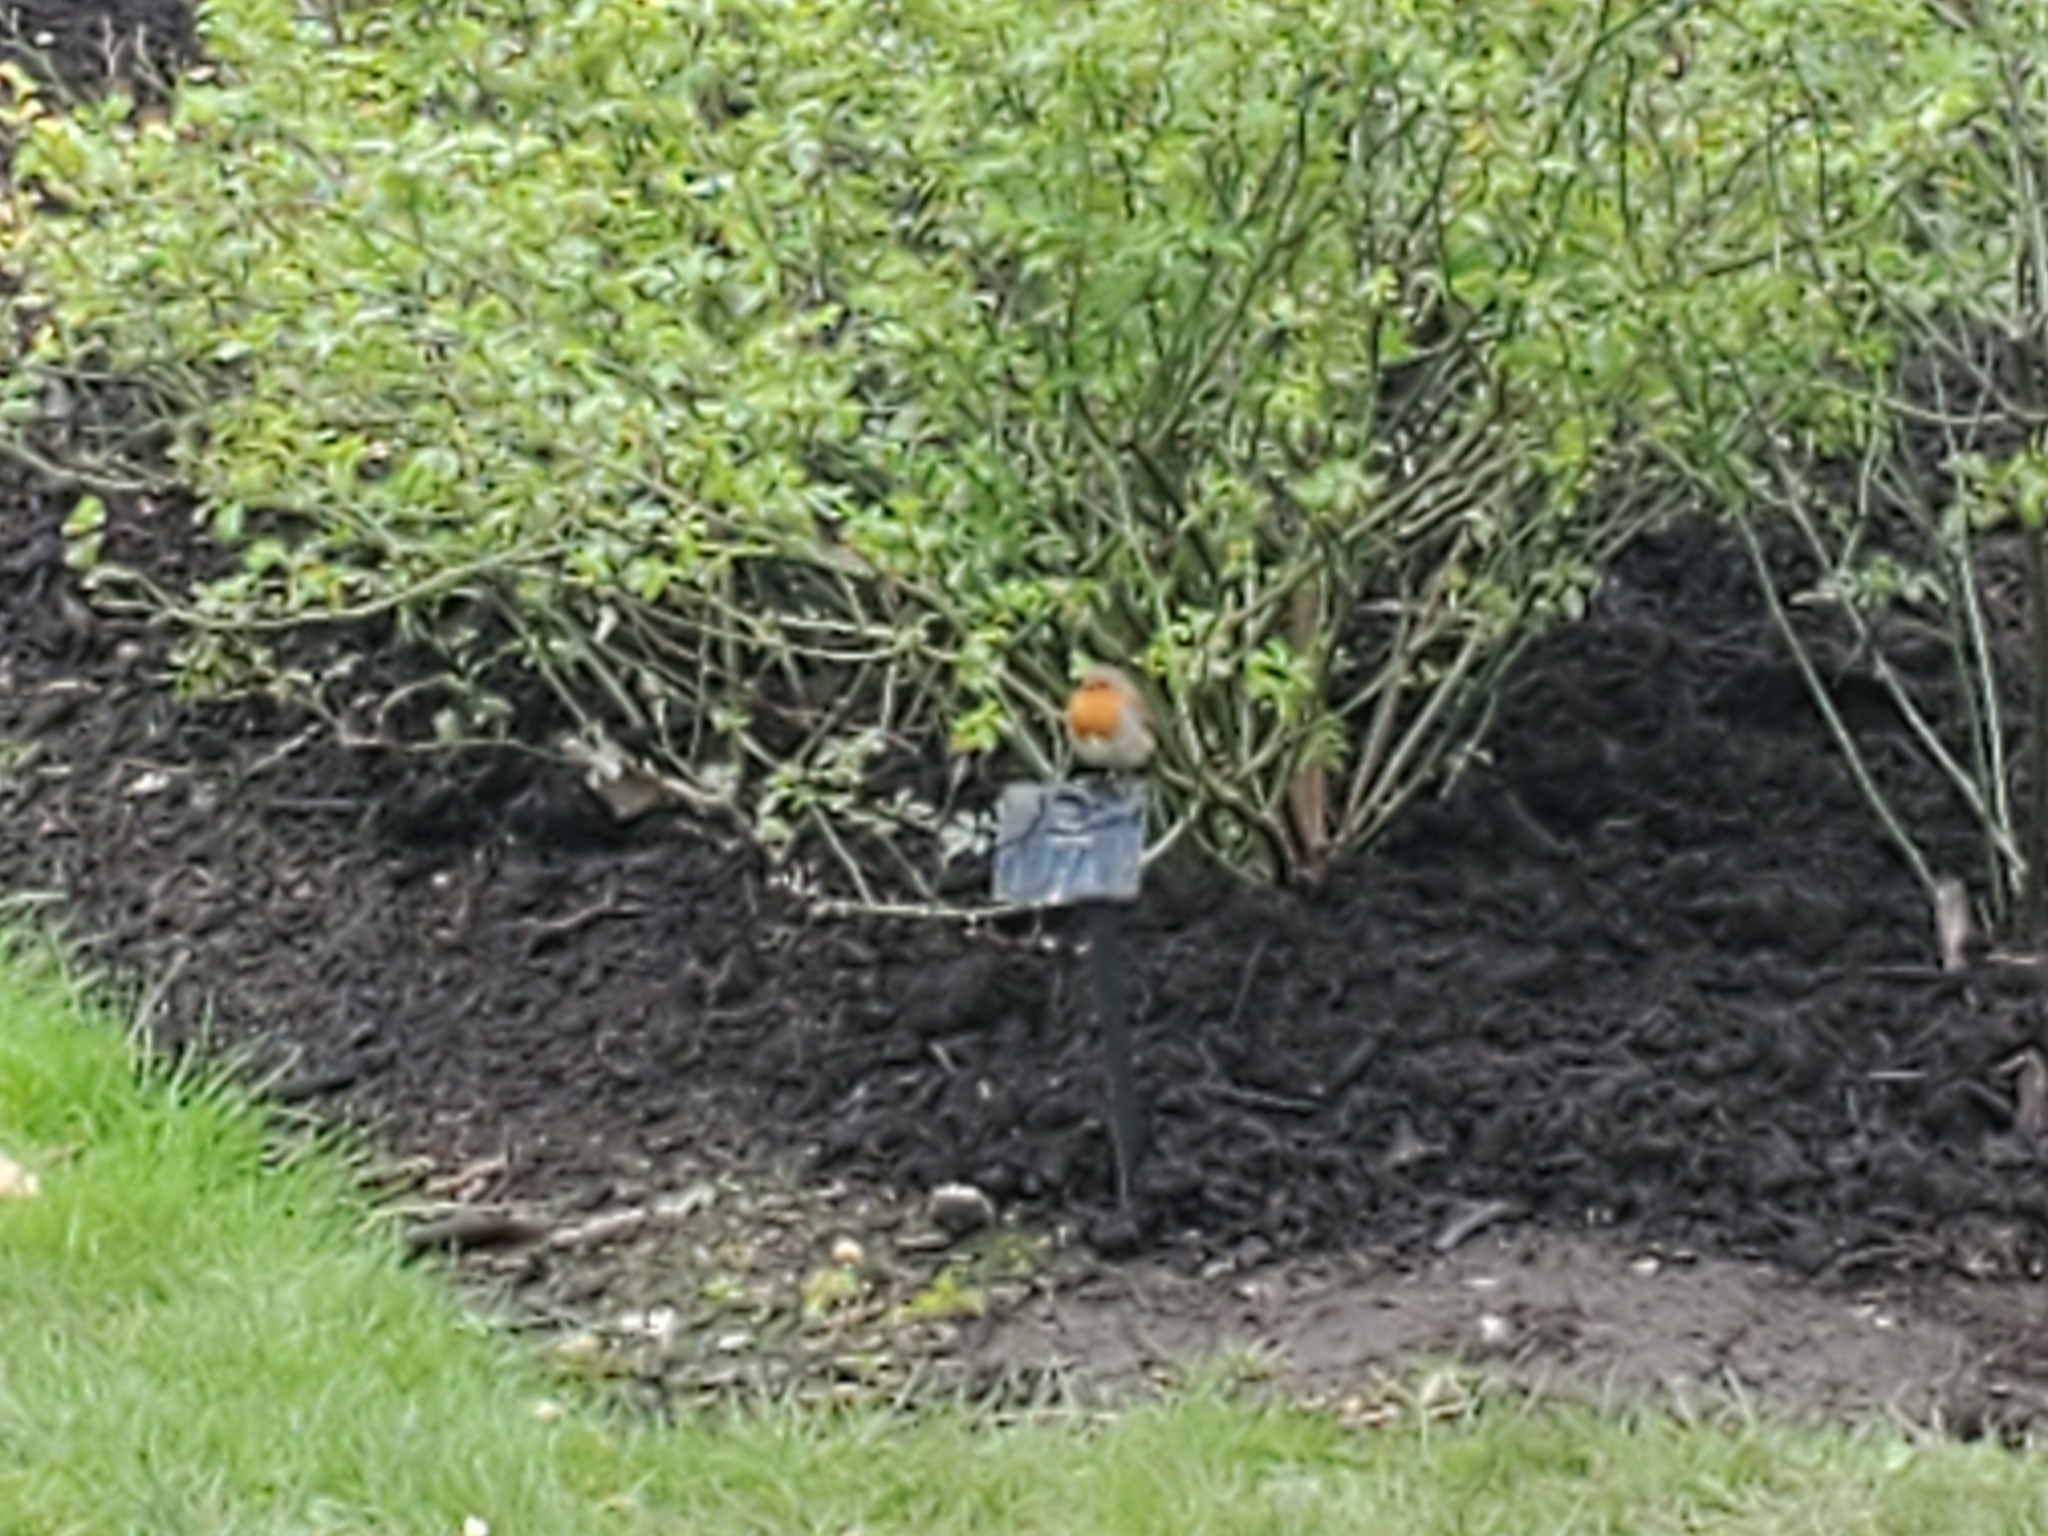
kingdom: Animalia
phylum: Chordata
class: Aves
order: Passeriformes
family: Muscicapidae
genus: Erithacus
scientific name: Erithacus rubecula
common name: European robin
